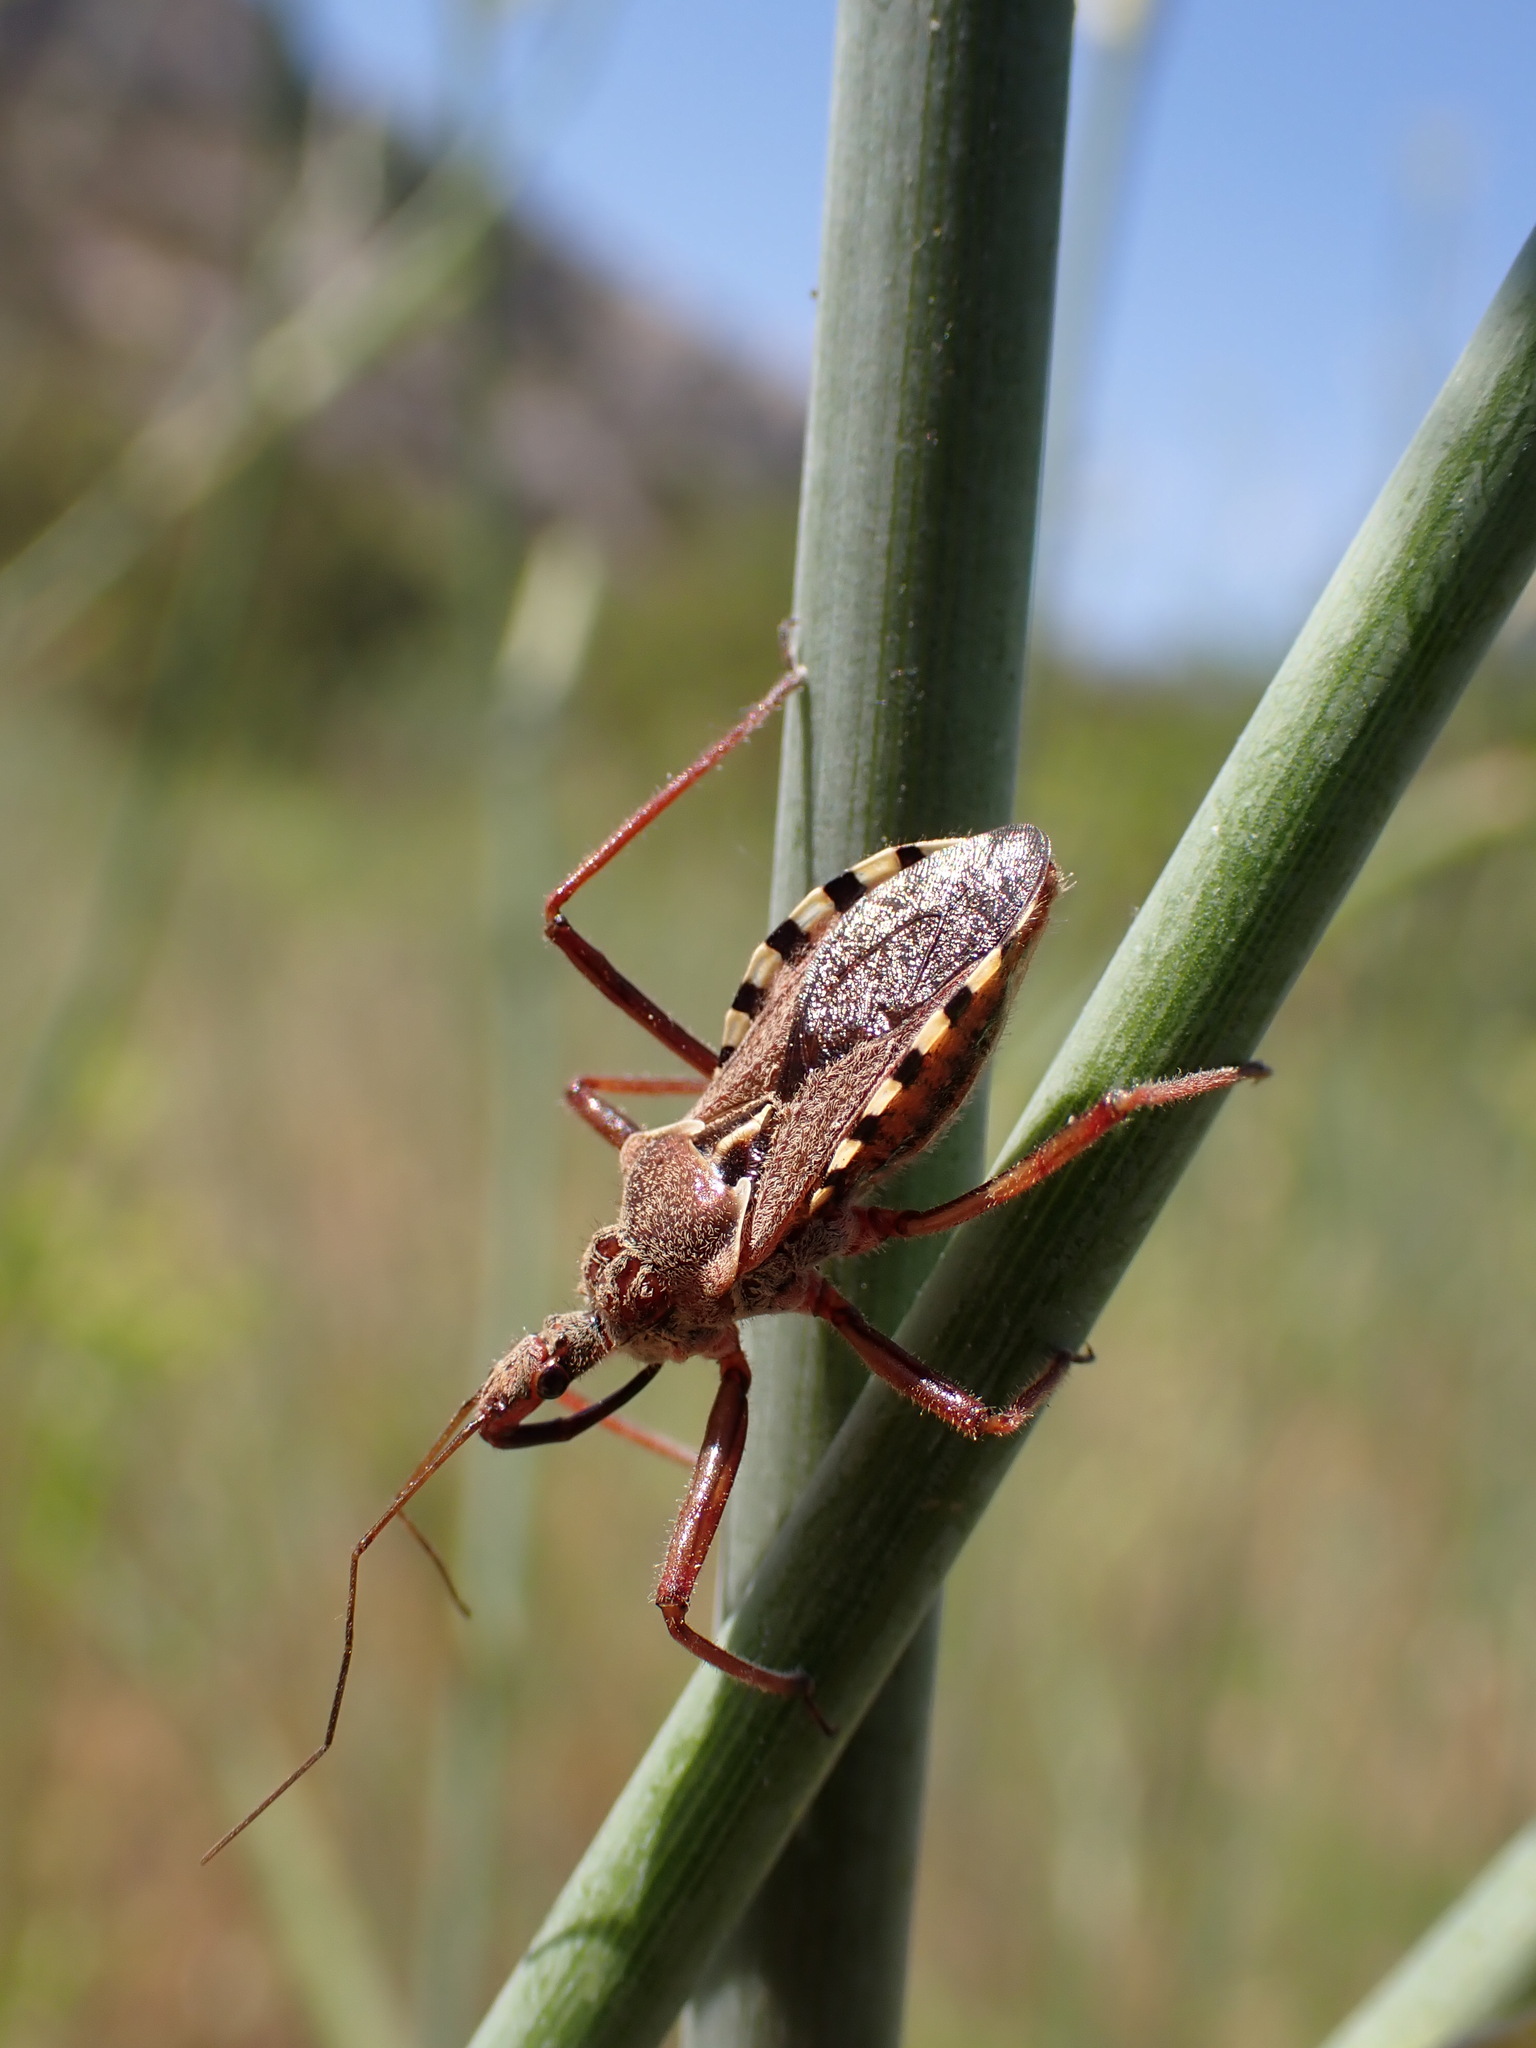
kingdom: Animalia
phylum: Arthropoda
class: Insecta
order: Hemiptera
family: Reduviidae
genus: Rhynocoris
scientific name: Rhynocoris erythropus
